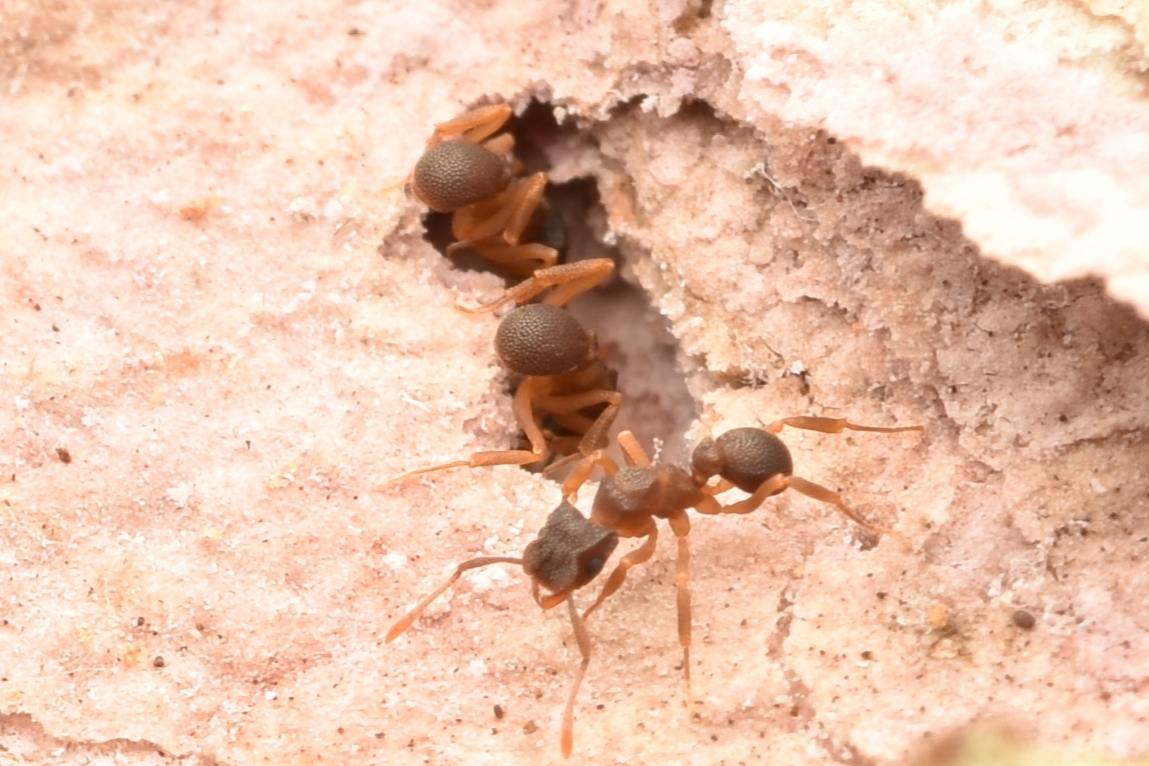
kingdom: Animalia
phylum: Arthropoda
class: Insecta
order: Hymenoptera
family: Formicidae
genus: Cyphomyrmex
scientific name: Cyphomyrmex rimosus
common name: Rimose fungus ant
